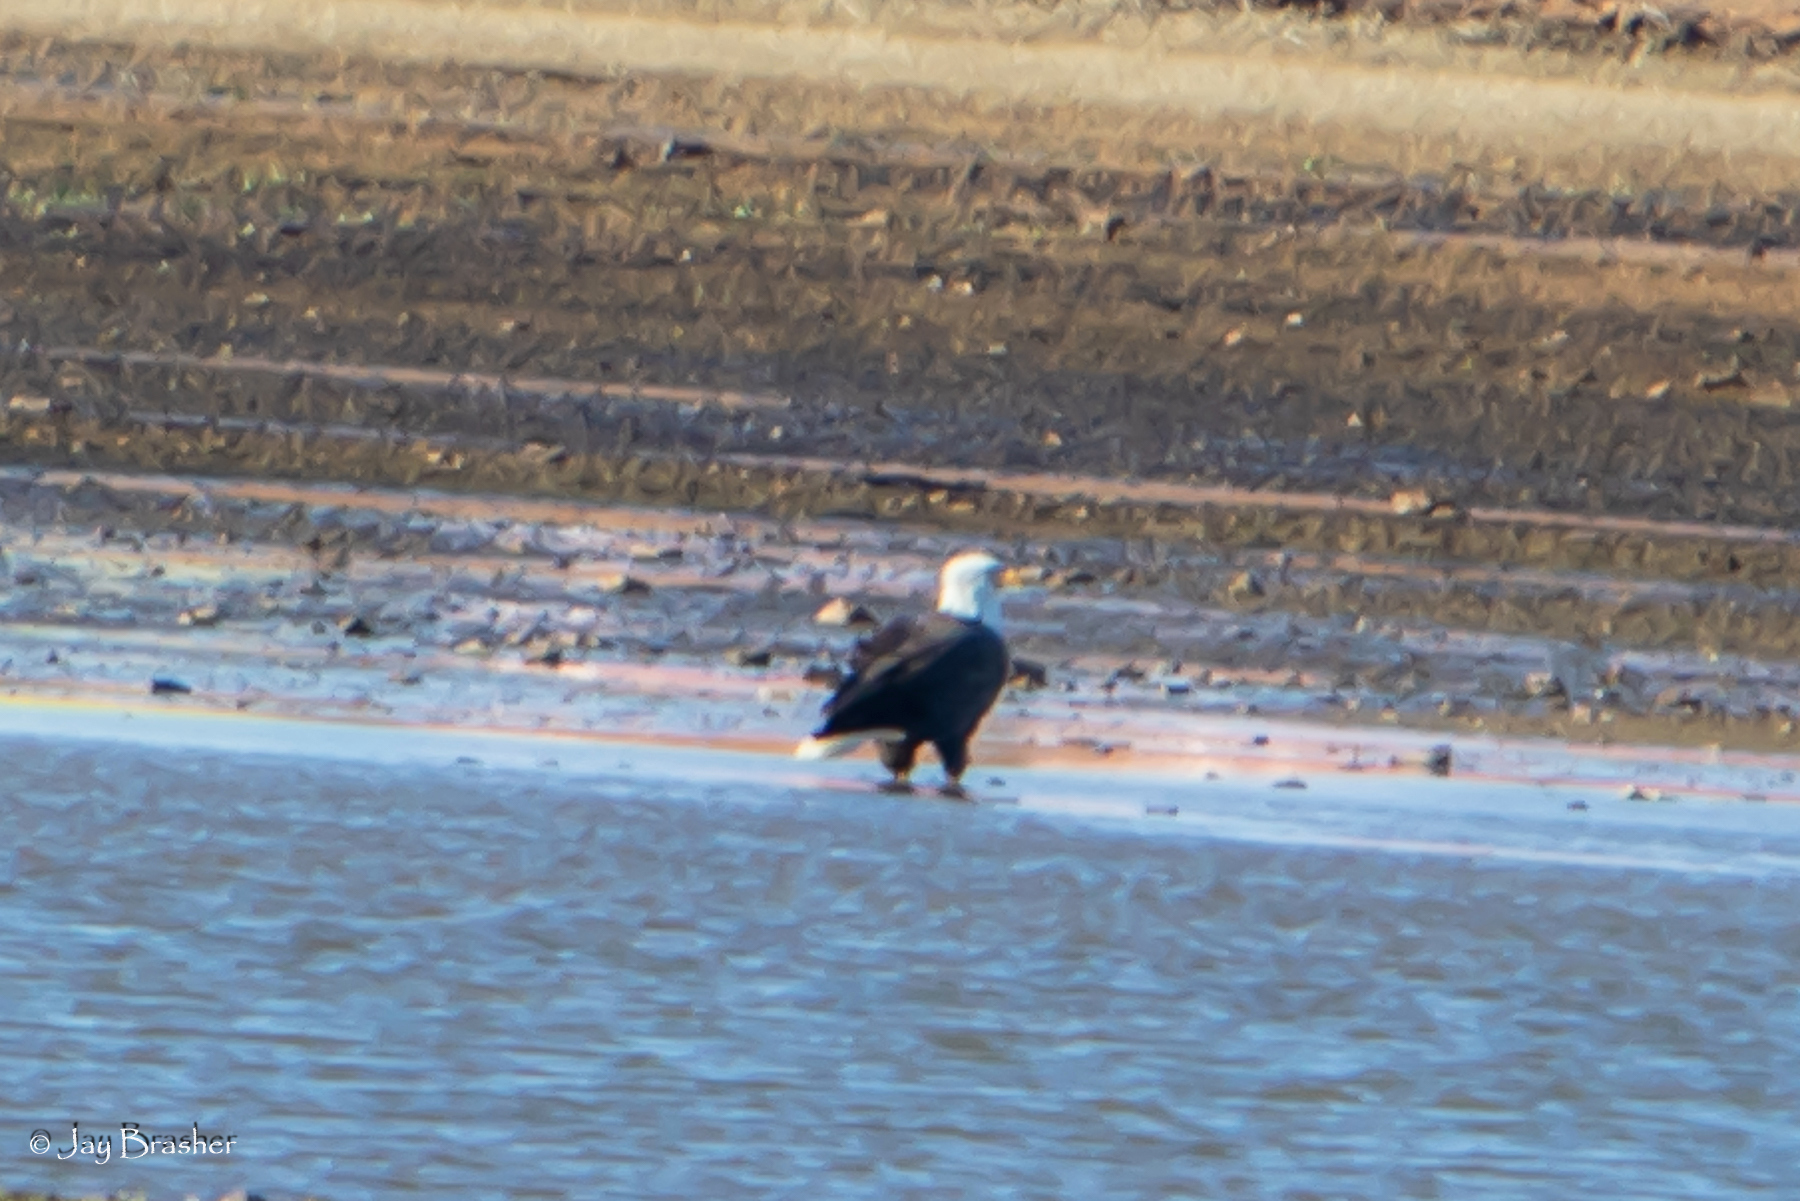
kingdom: Animalia
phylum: Chordata
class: Aves
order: Accipitriformes
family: Accipitridae
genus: Haliaeetus
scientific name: Haliaeetus leucocephalus
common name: Bald eagle
